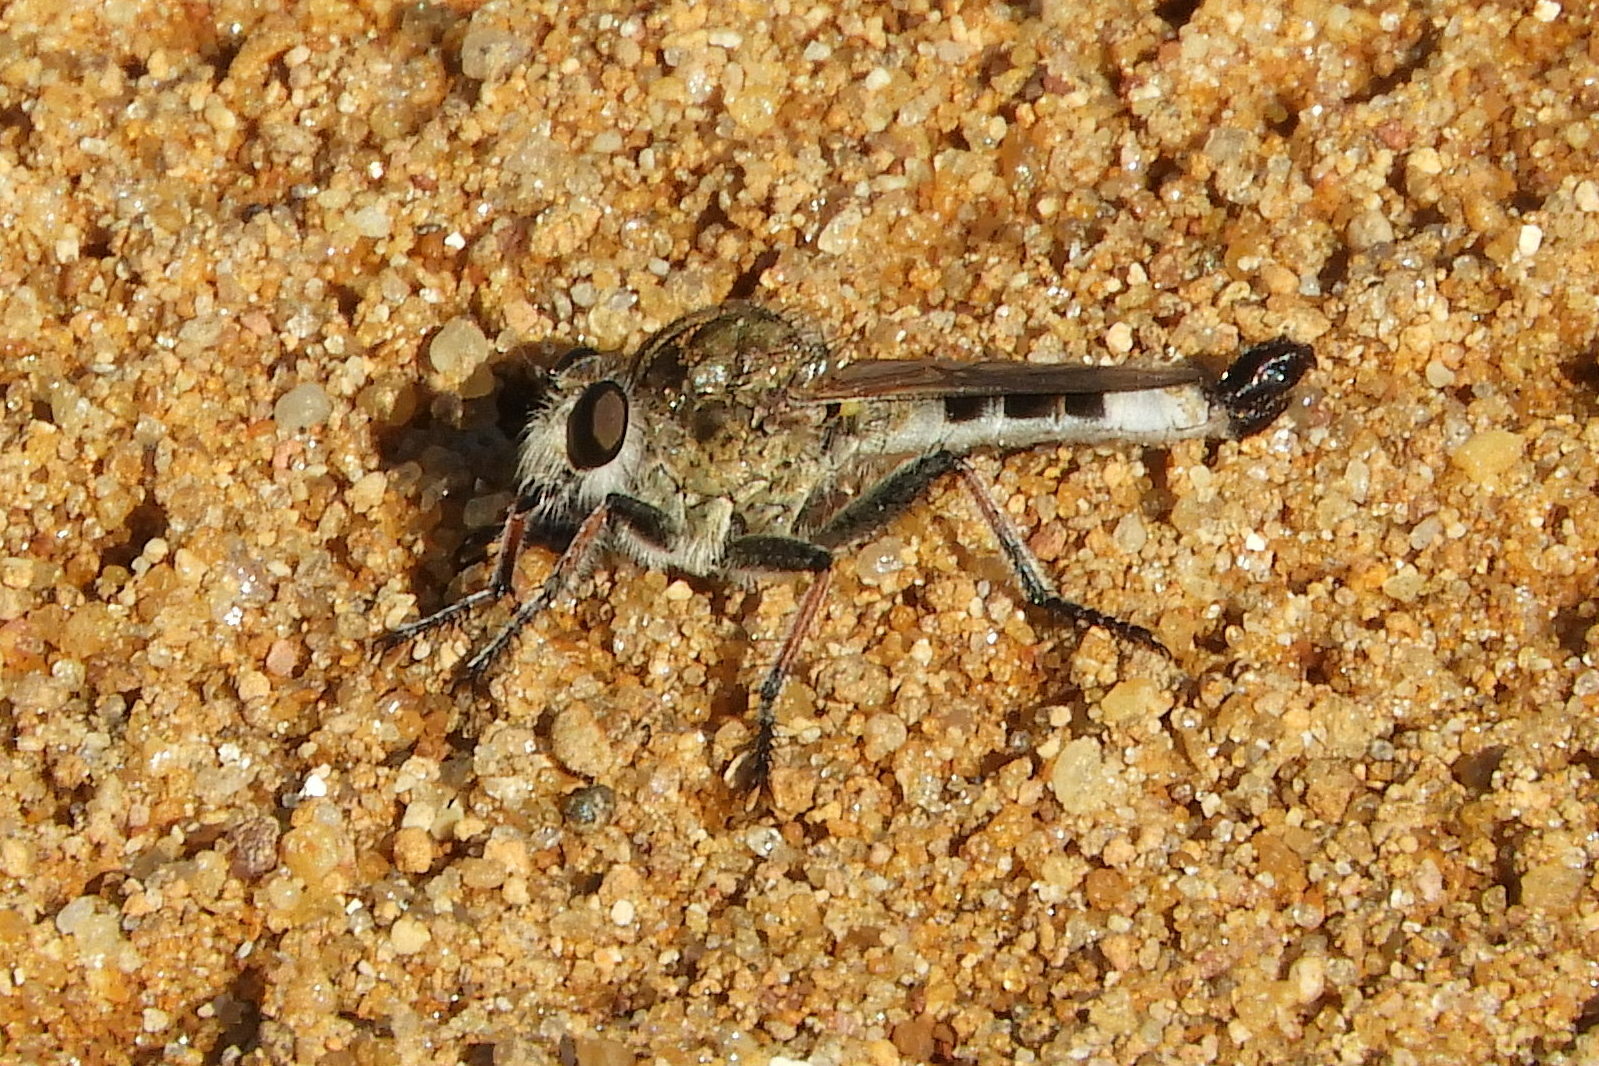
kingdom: Animalia
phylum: Arthropoda
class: Insecta
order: Diptera
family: Asilidae
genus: Efferia
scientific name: Efferia albibarbis
